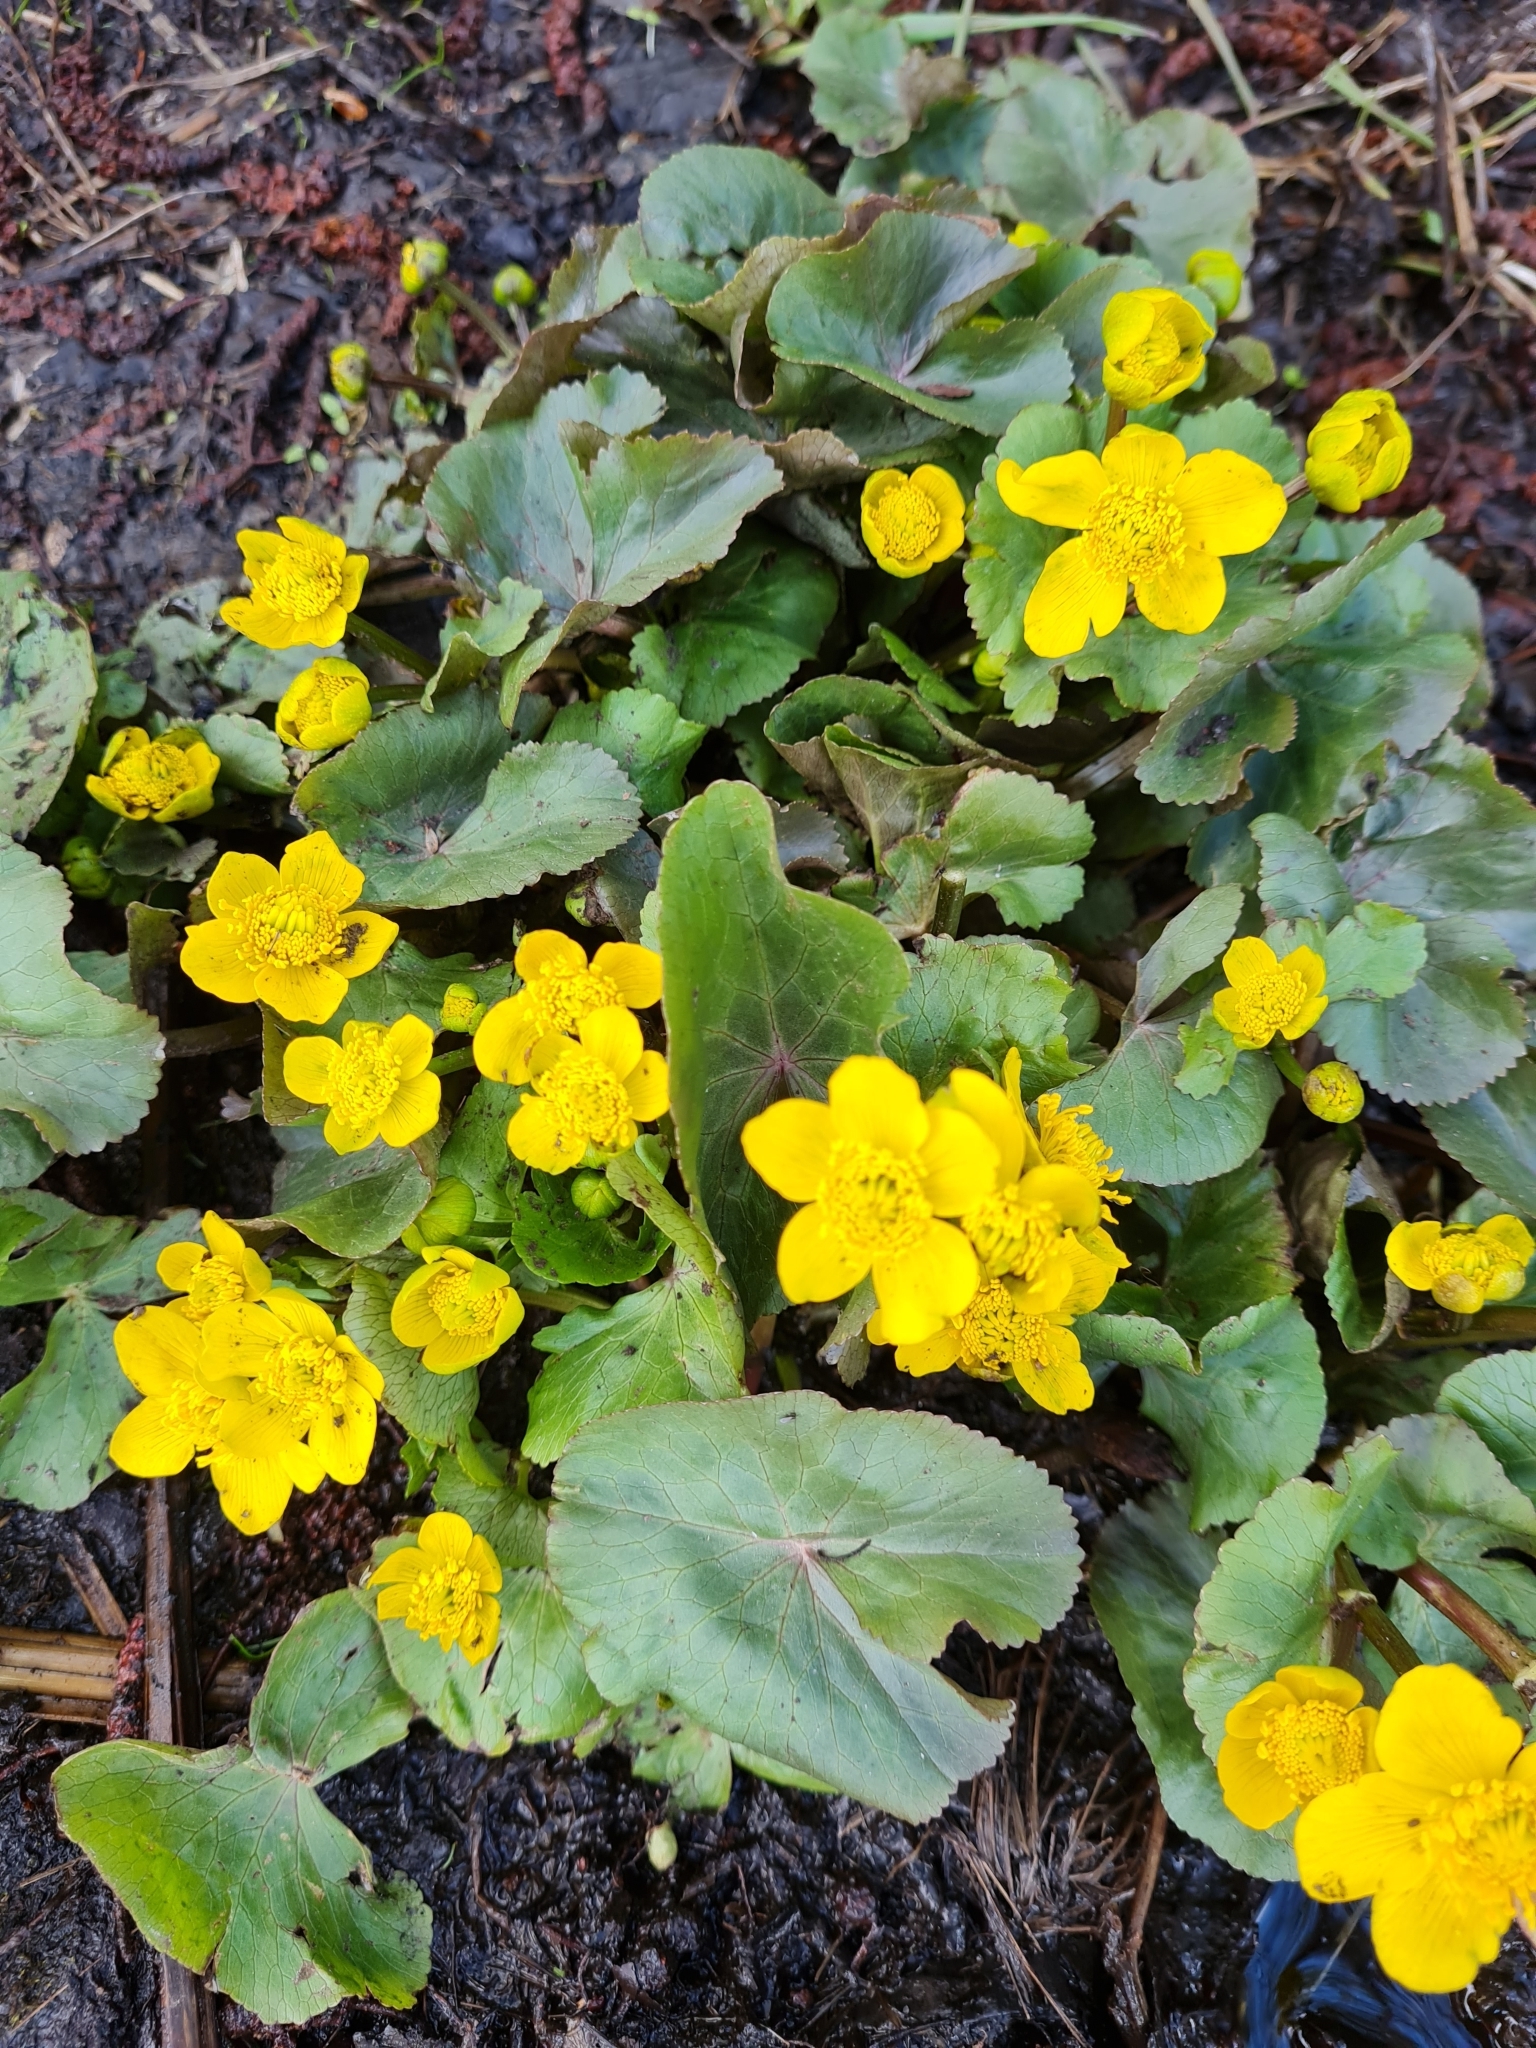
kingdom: Plantae
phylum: Tracheophyta
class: Magnoliopsida
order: Ranunculales
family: Ranunculaceae
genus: Caltha
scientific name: Caltha palustris
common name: Marsh marigold
